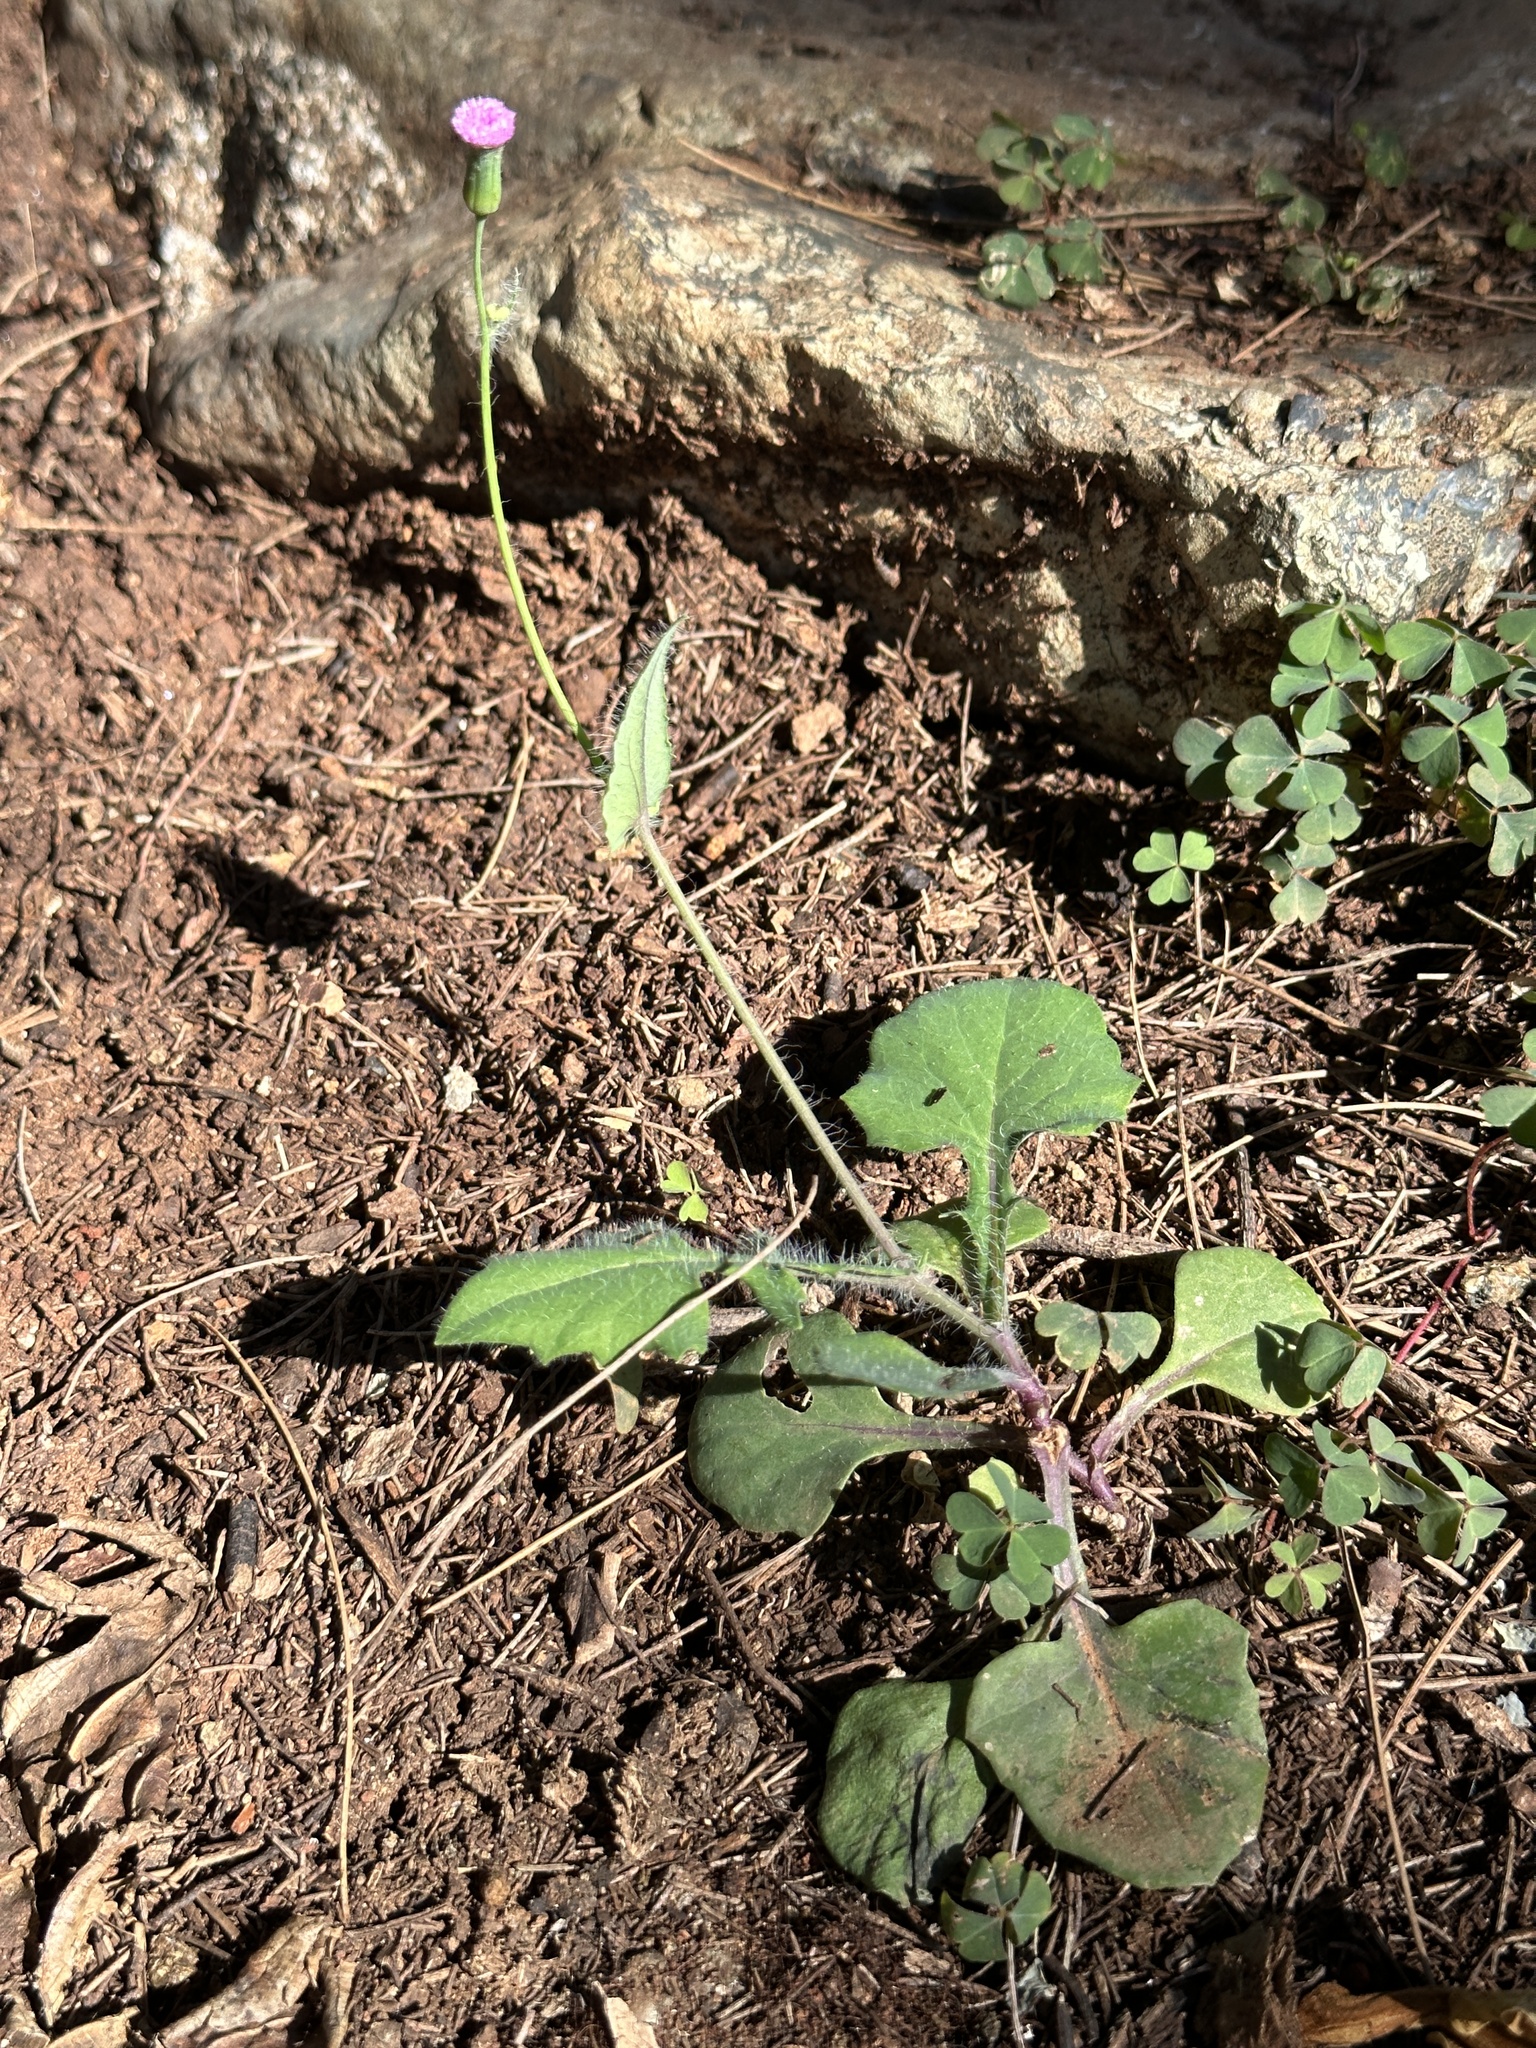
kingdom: Plantae
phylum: Tracheophyta
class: Magnoliopsida
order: Asterales
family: Asteraceae
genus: Emilia
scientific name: Emilia sonchifolia
